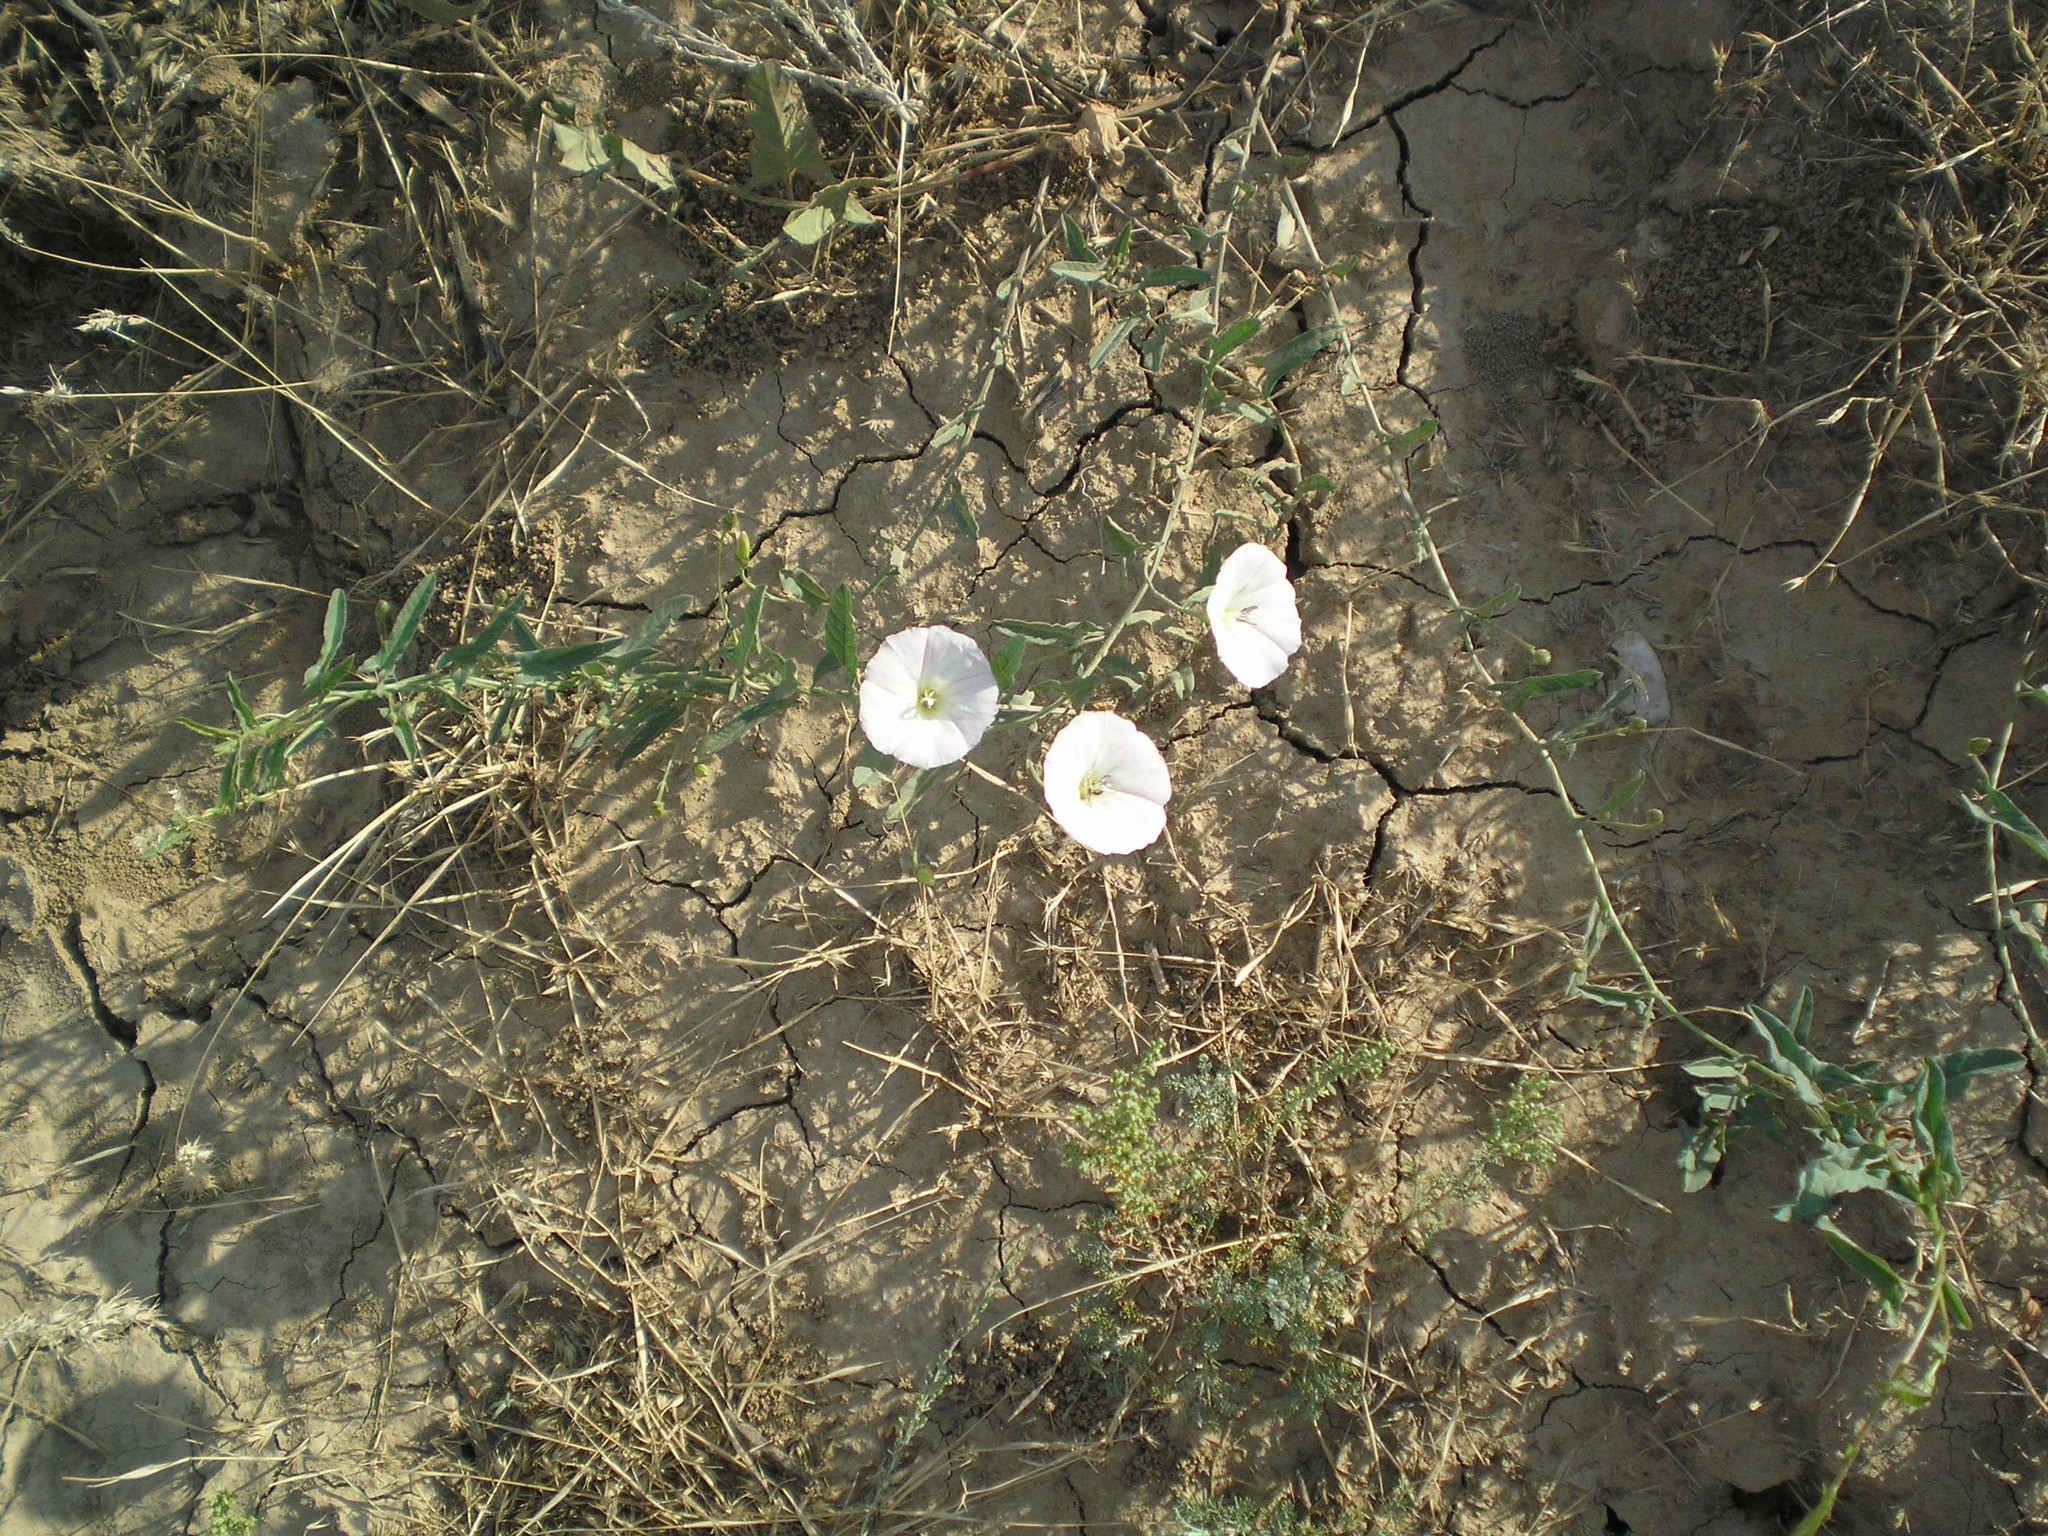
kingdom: Plantae
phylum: Tracheophyta
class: Magnoliopsida
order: Solanales
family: Convolvulaceae
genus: Convolvulus
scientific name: Convolvulus arvensis
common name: Field bindweed
